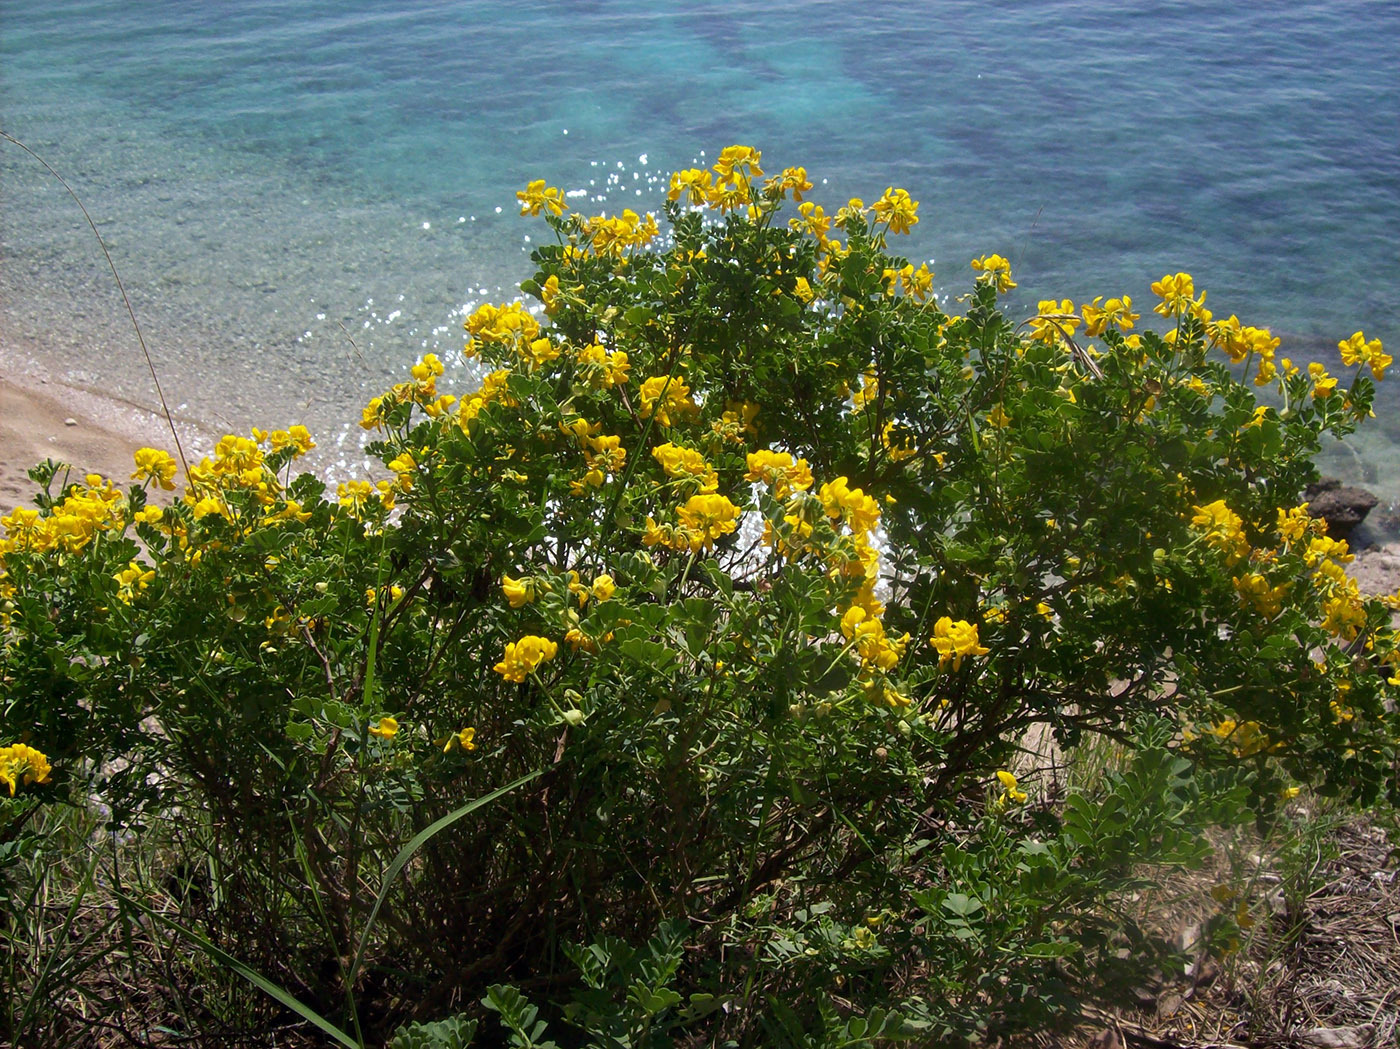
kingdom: Plantae
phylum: Tracheophyta
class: Magnoliopsida
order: Fabales
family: Fabaceae
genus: Coronilla
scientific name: Coronilla valentina
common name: Shrubby scorpion-vetch
